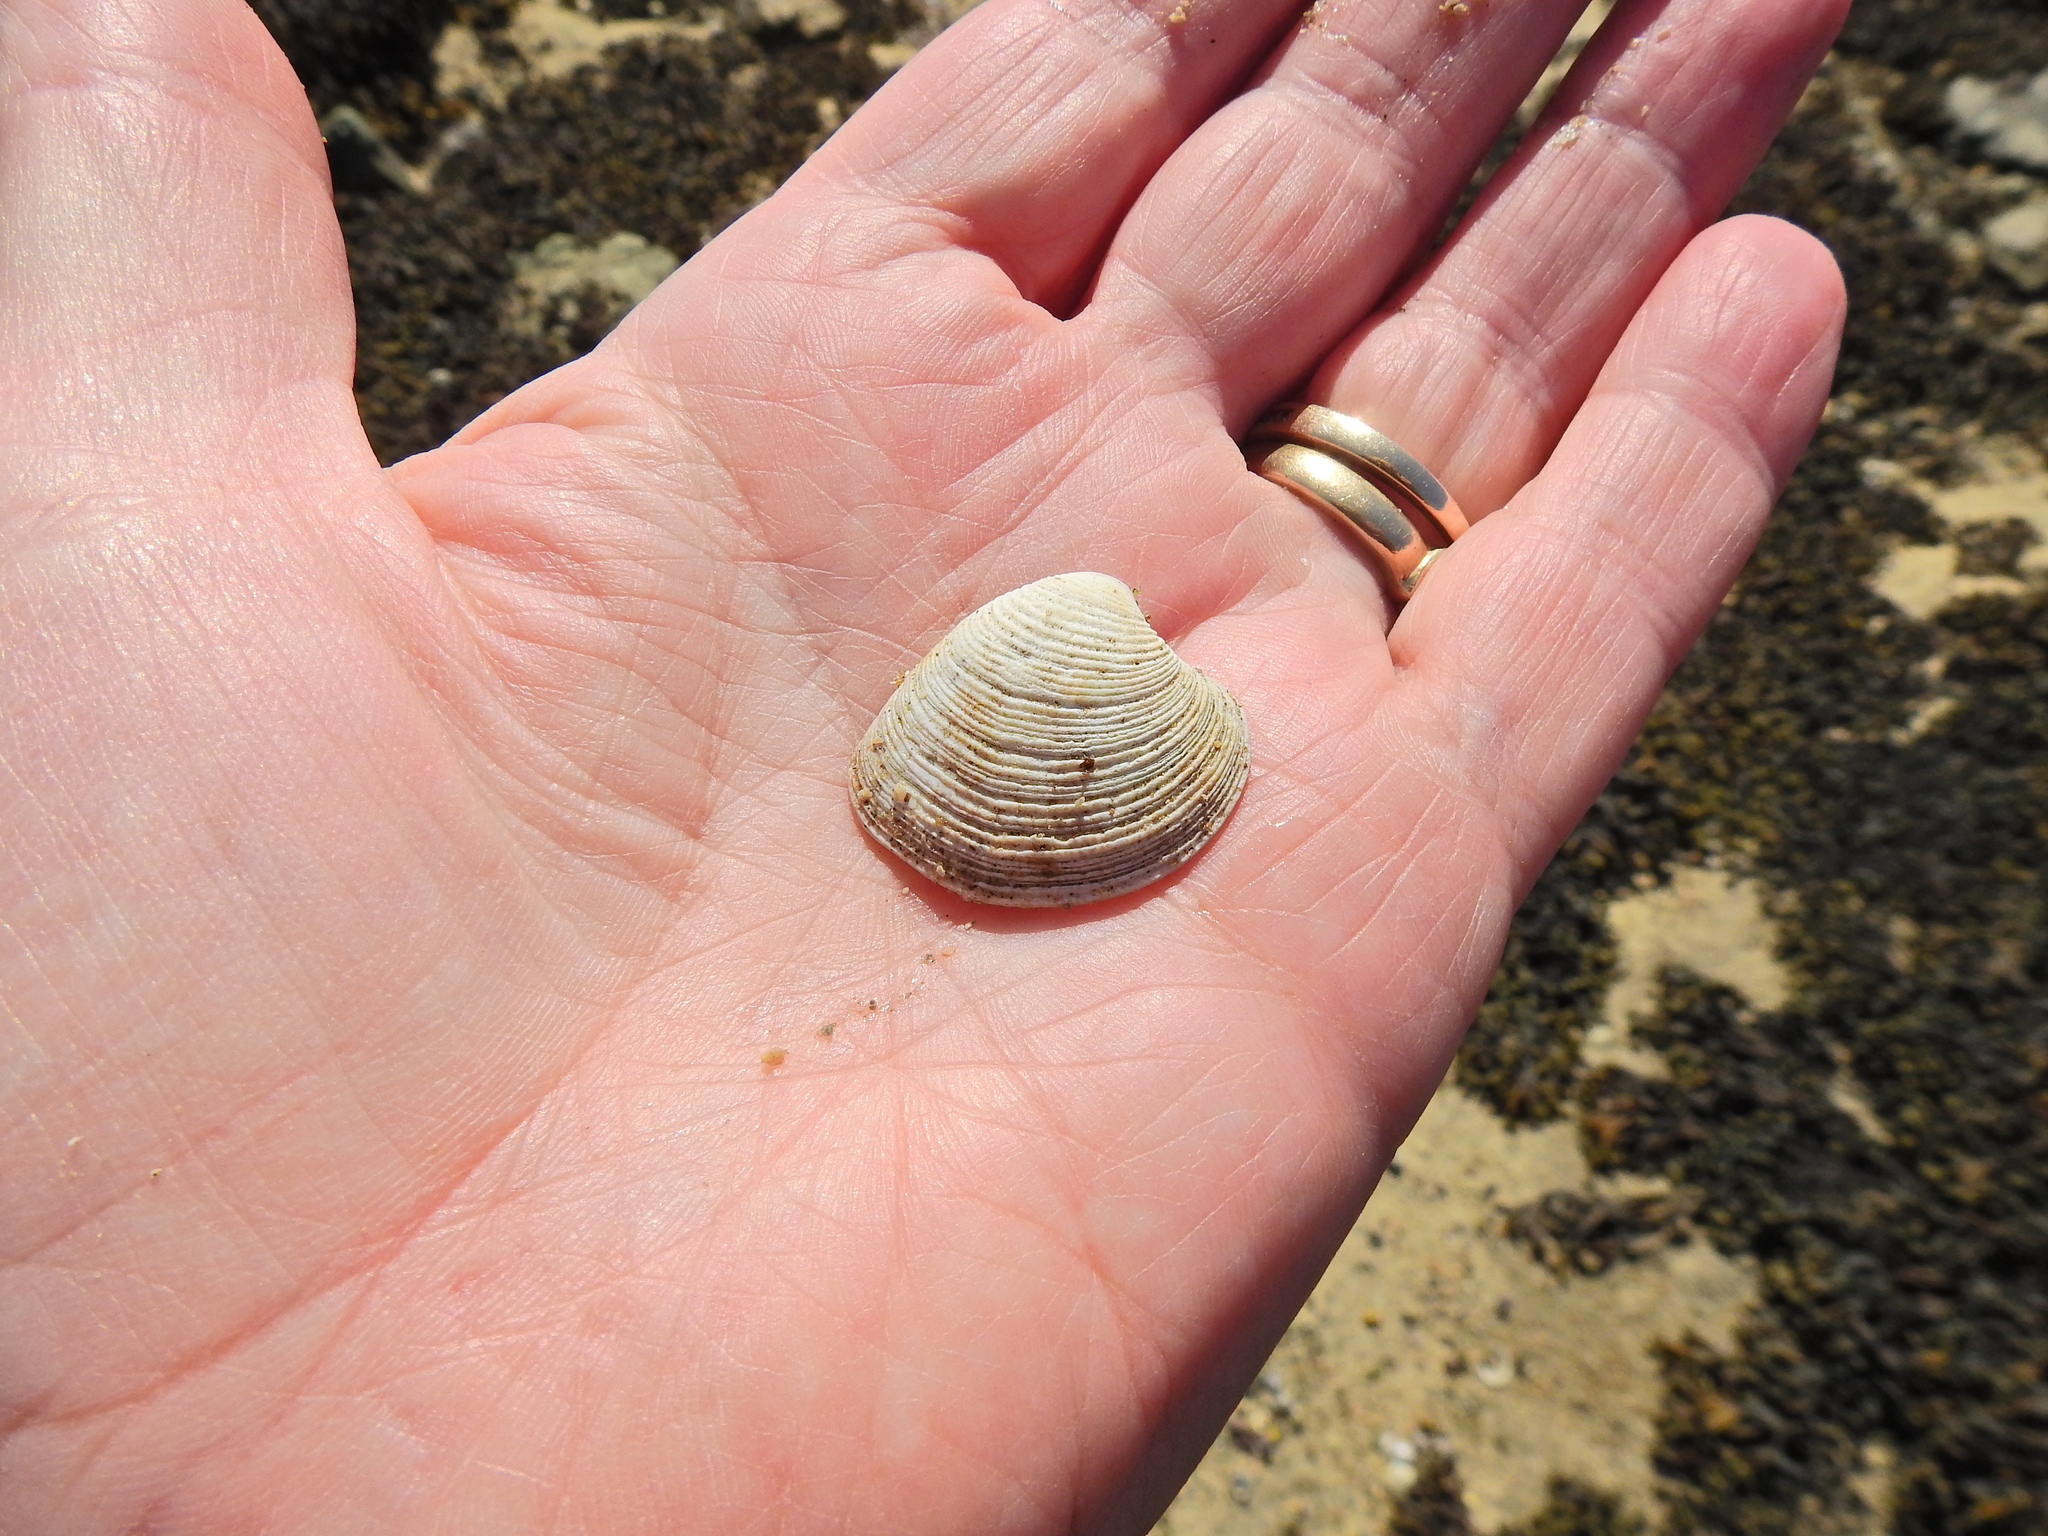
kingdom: Animalia
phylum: Mollusca
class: Bivalvia
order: Venerida
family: Veneridae
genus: Chamelea
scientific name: Chamelea striatula
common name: Striped venus
